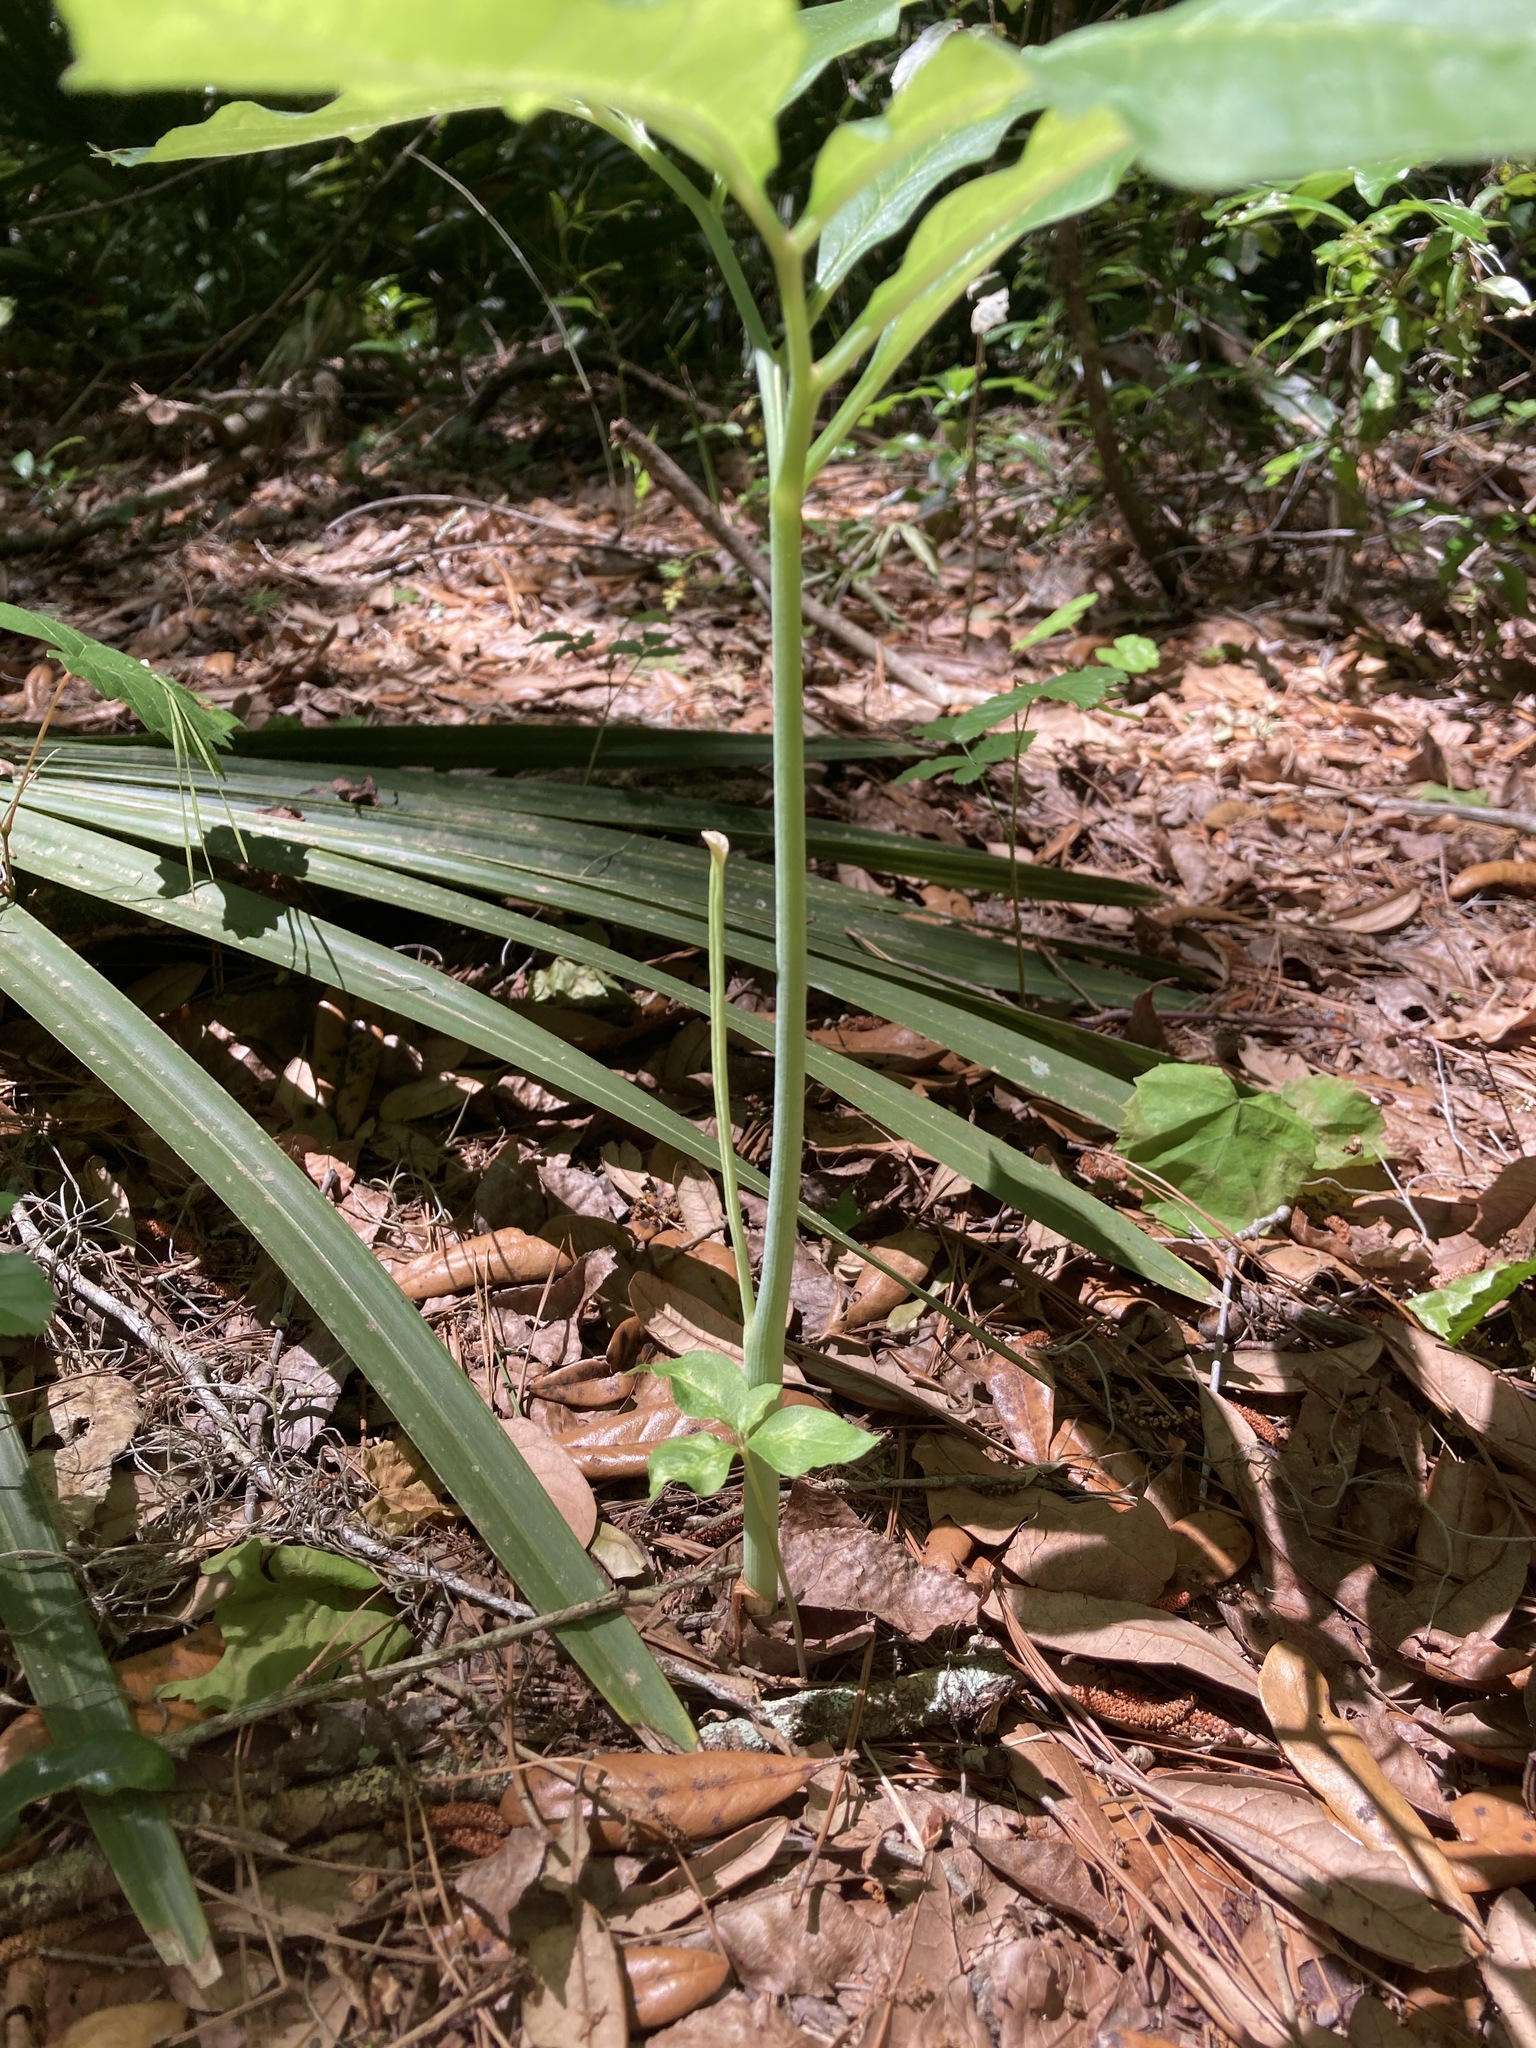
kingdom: Plantae
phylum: Tracheophyta
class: Liliopsida
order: Alismatales
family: Araceae
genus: Arisaema
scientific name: Arisaema dracontium
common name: Dragon-arum
